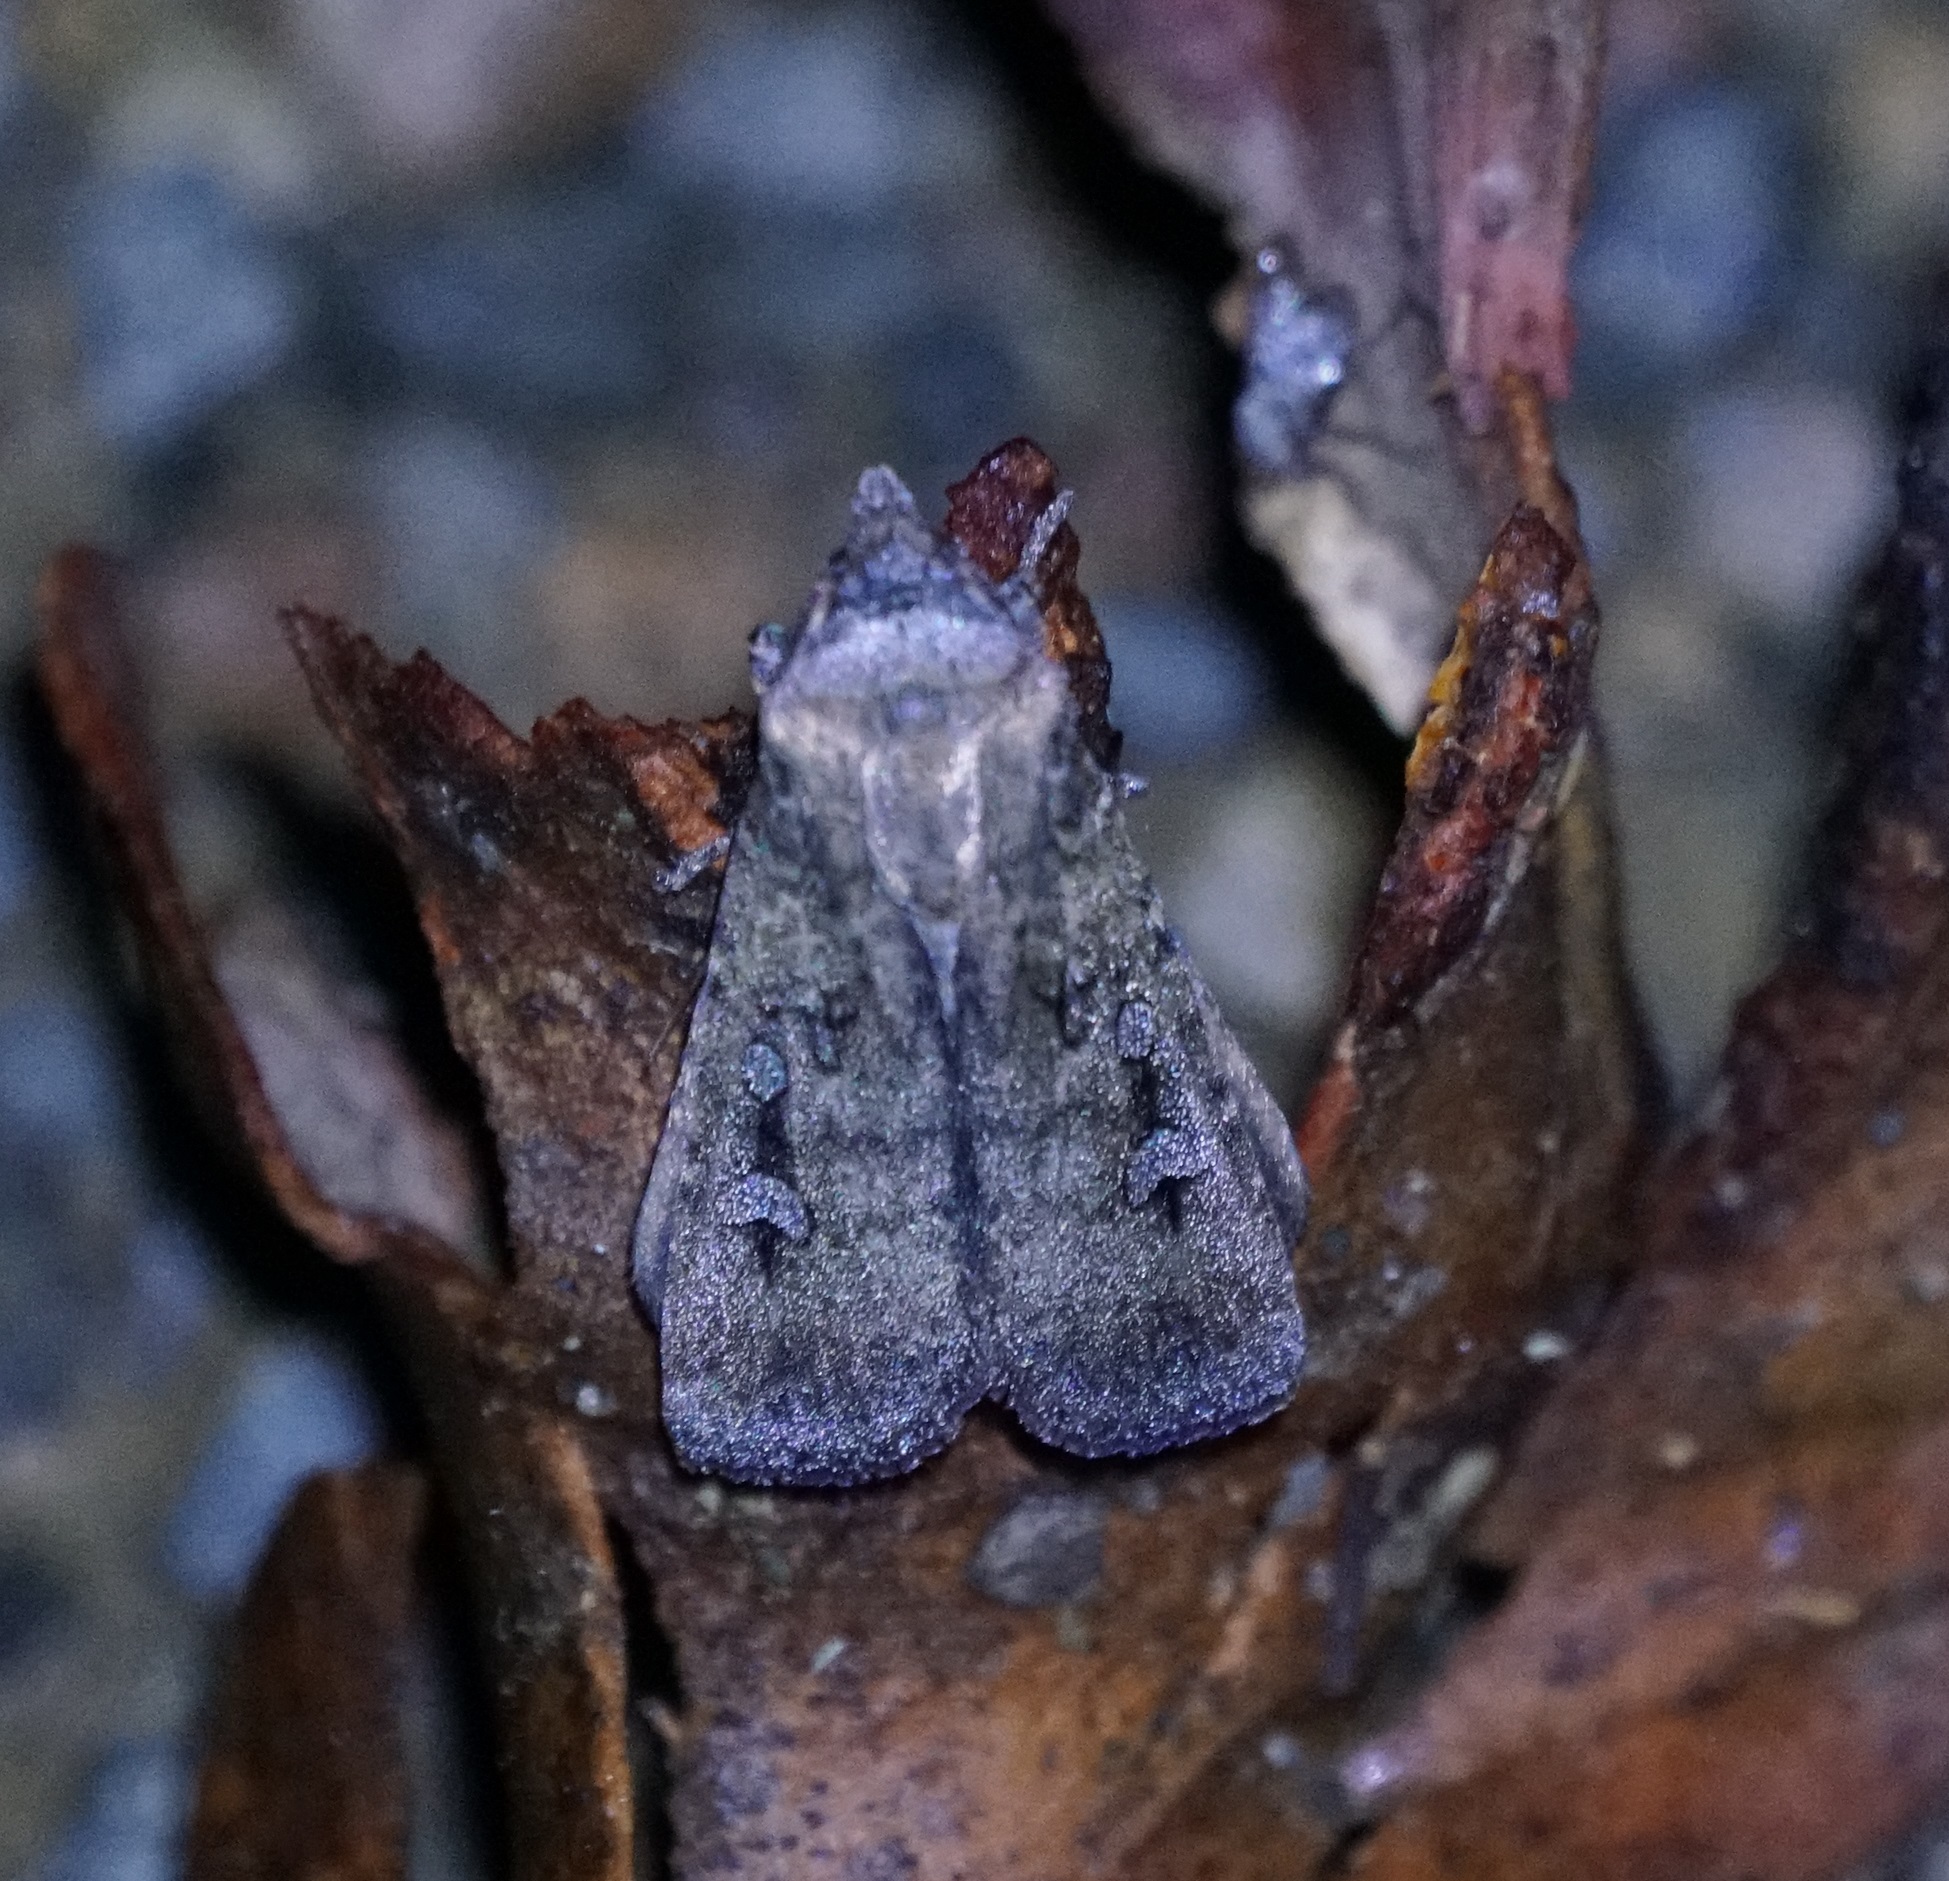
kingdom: Animalia
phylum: Arthropoda
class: Insecta
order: Lepidoptera
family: Noctuidae
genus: Agrotis
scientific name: Agrotis infusa
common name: Bogong moth
